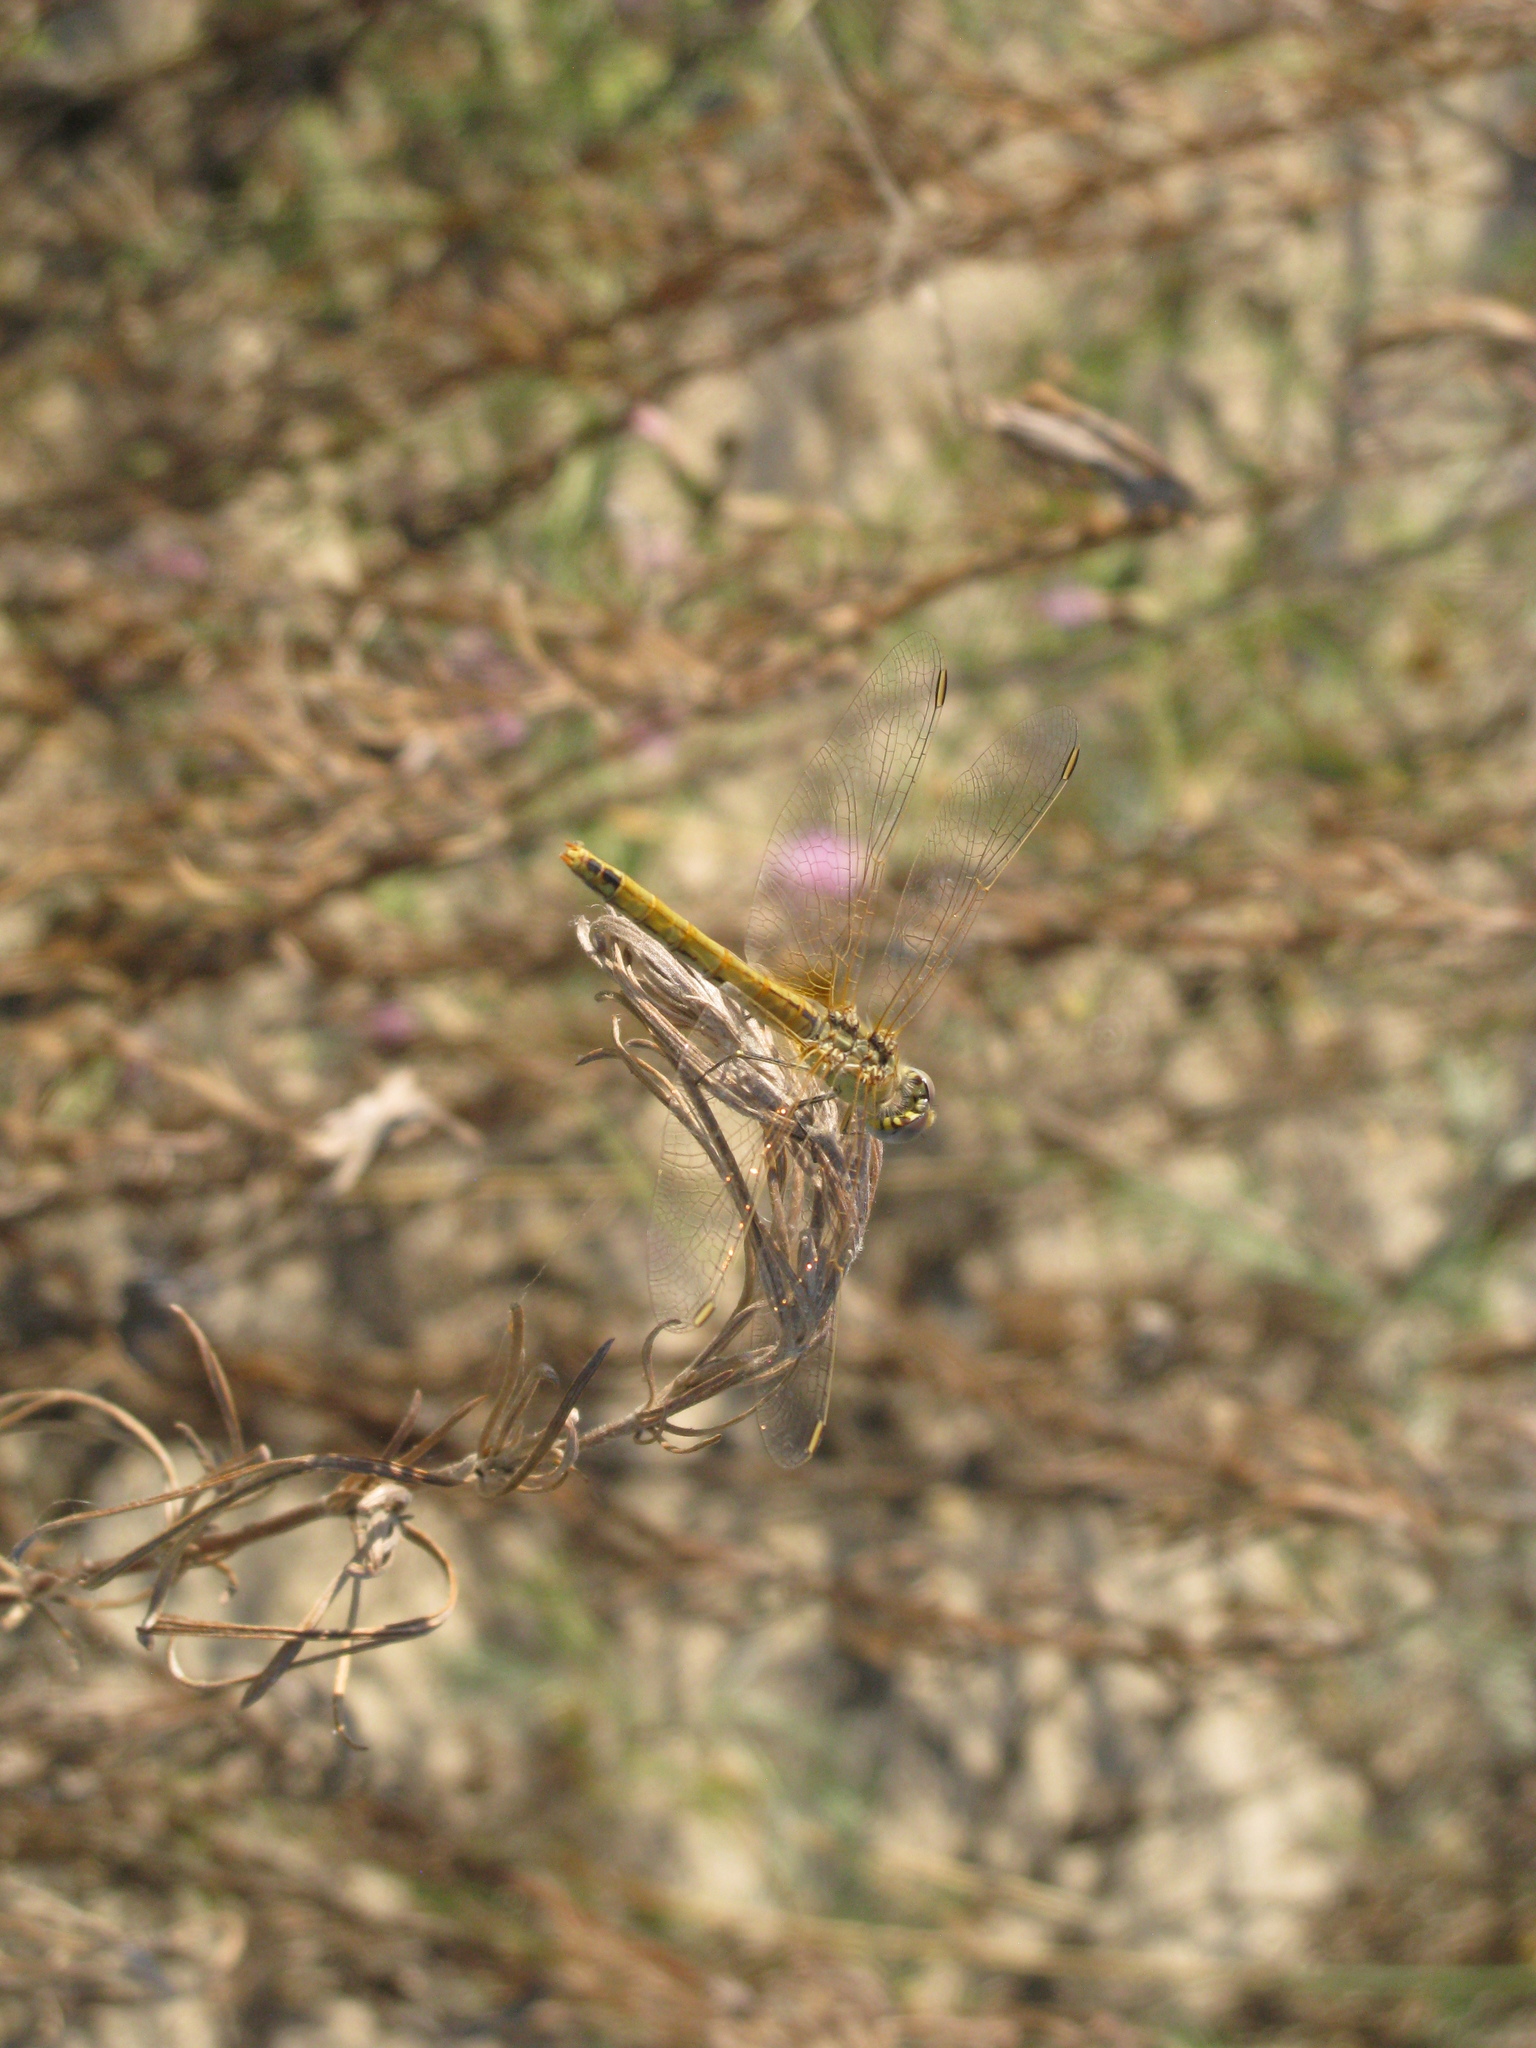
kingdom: Animalia
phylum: Arthropoda
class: Insecta
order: Odonata
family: Libellulidae
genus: Sympetrum
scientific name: Sympetrum fonscolombii
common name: Red-veined darter
